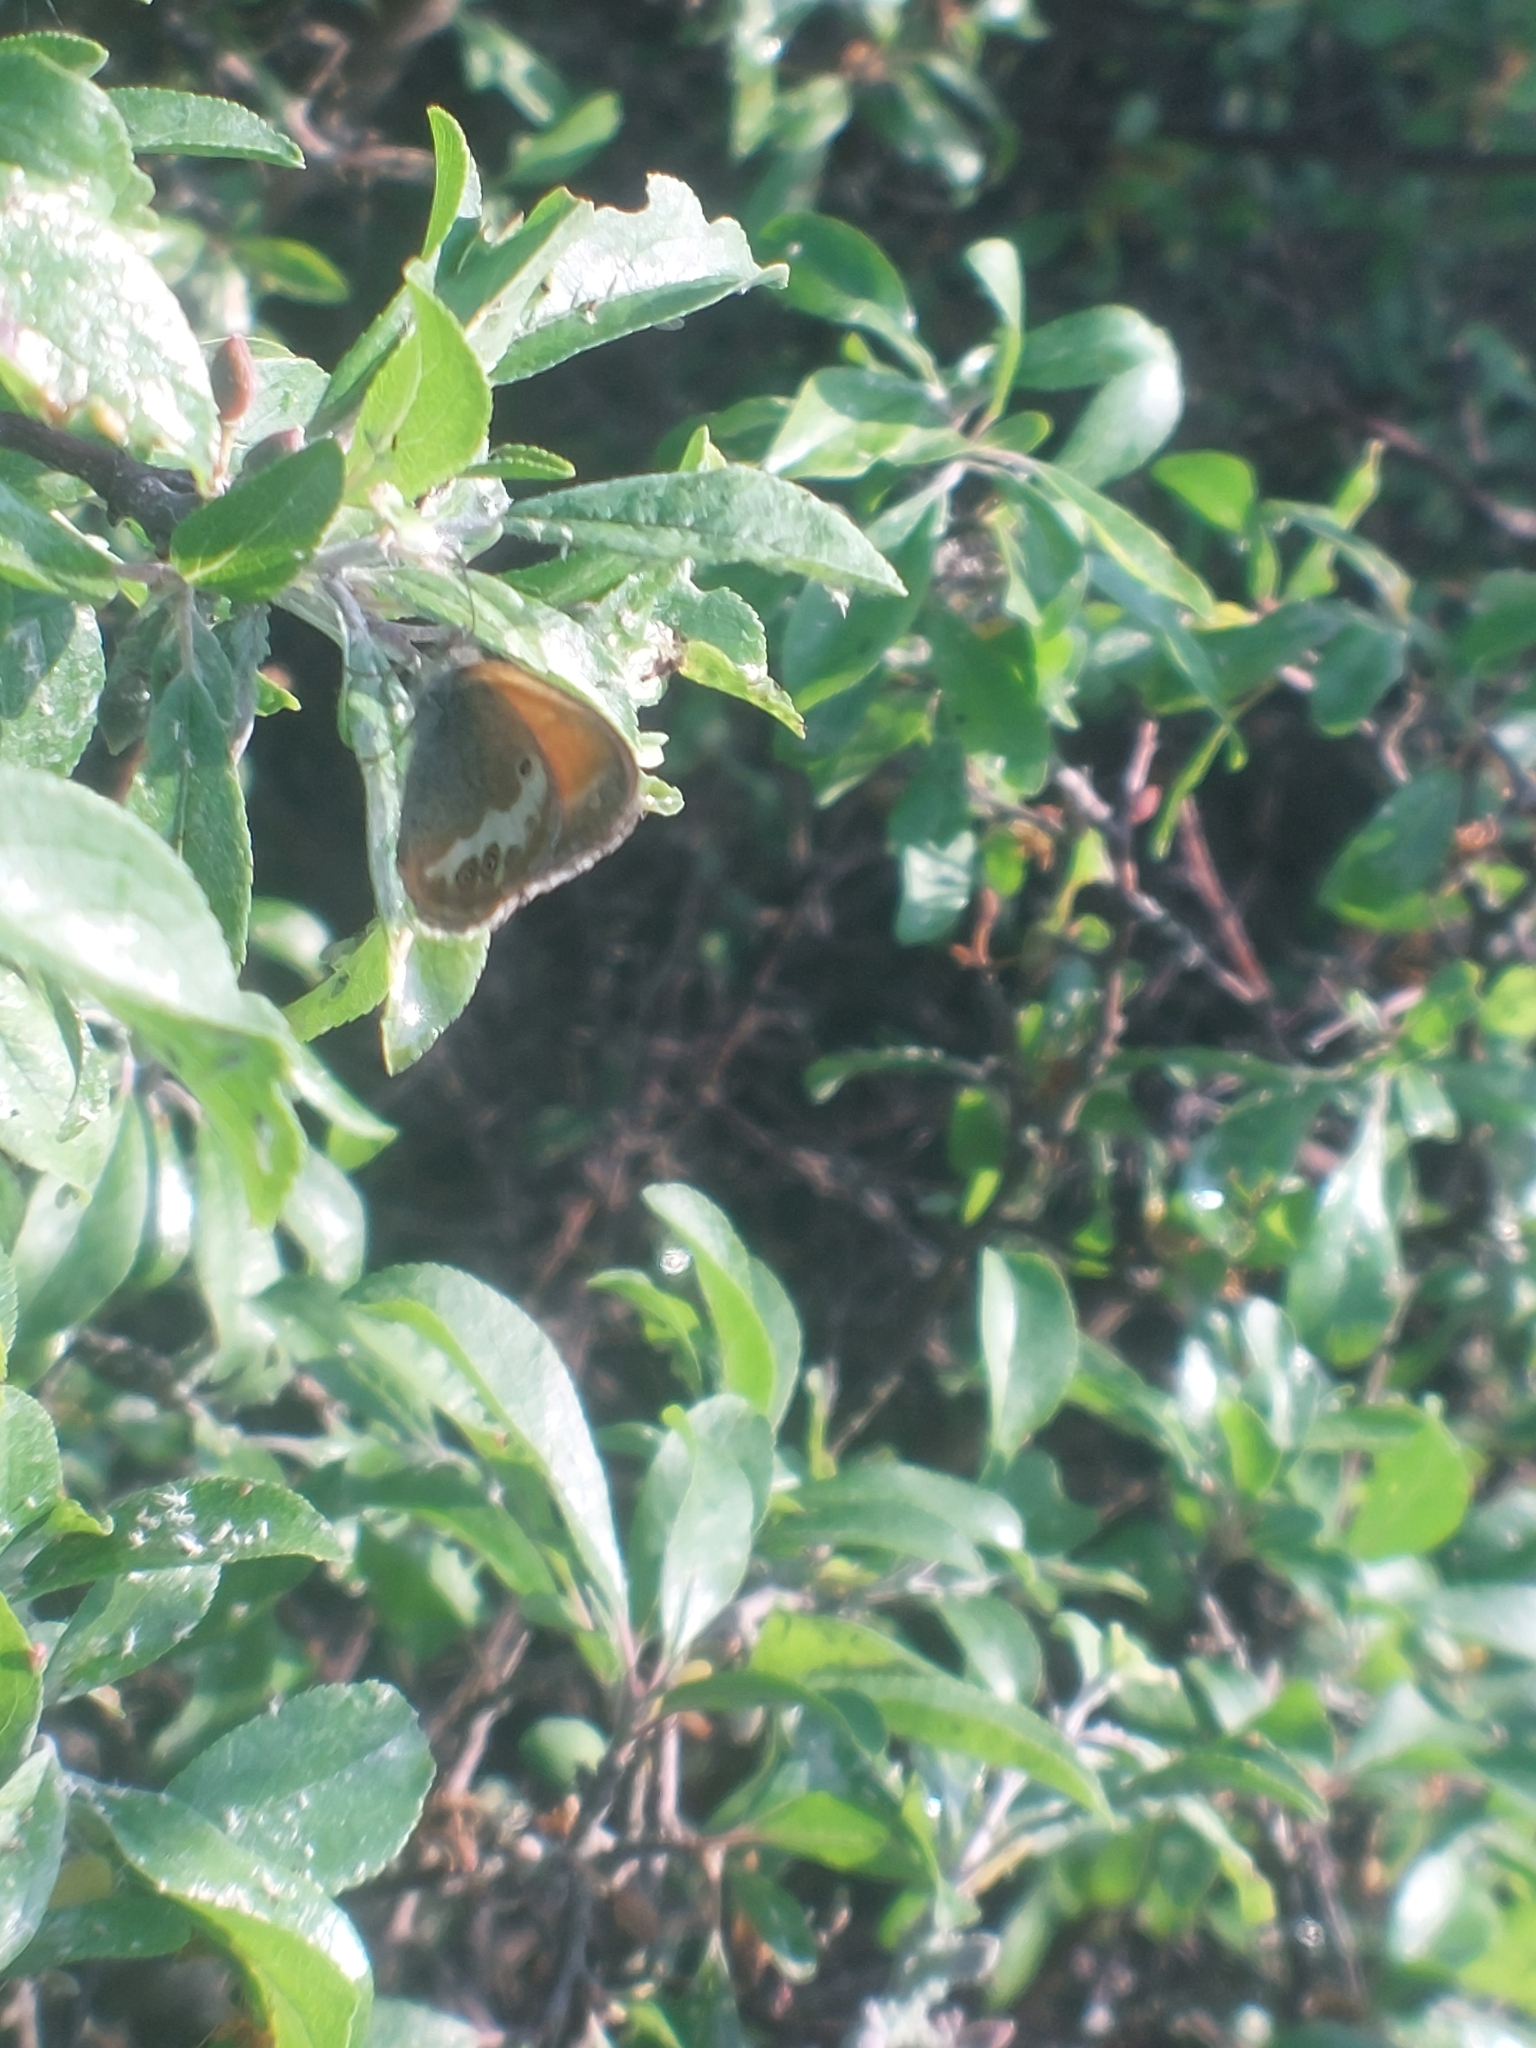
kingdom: Animalia
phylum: Arthropoda
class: Insecta
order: Lepidoptera
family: Nymphalidae
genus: Coenonympha
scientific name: Coenonympha arcania
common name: Pearly heath
